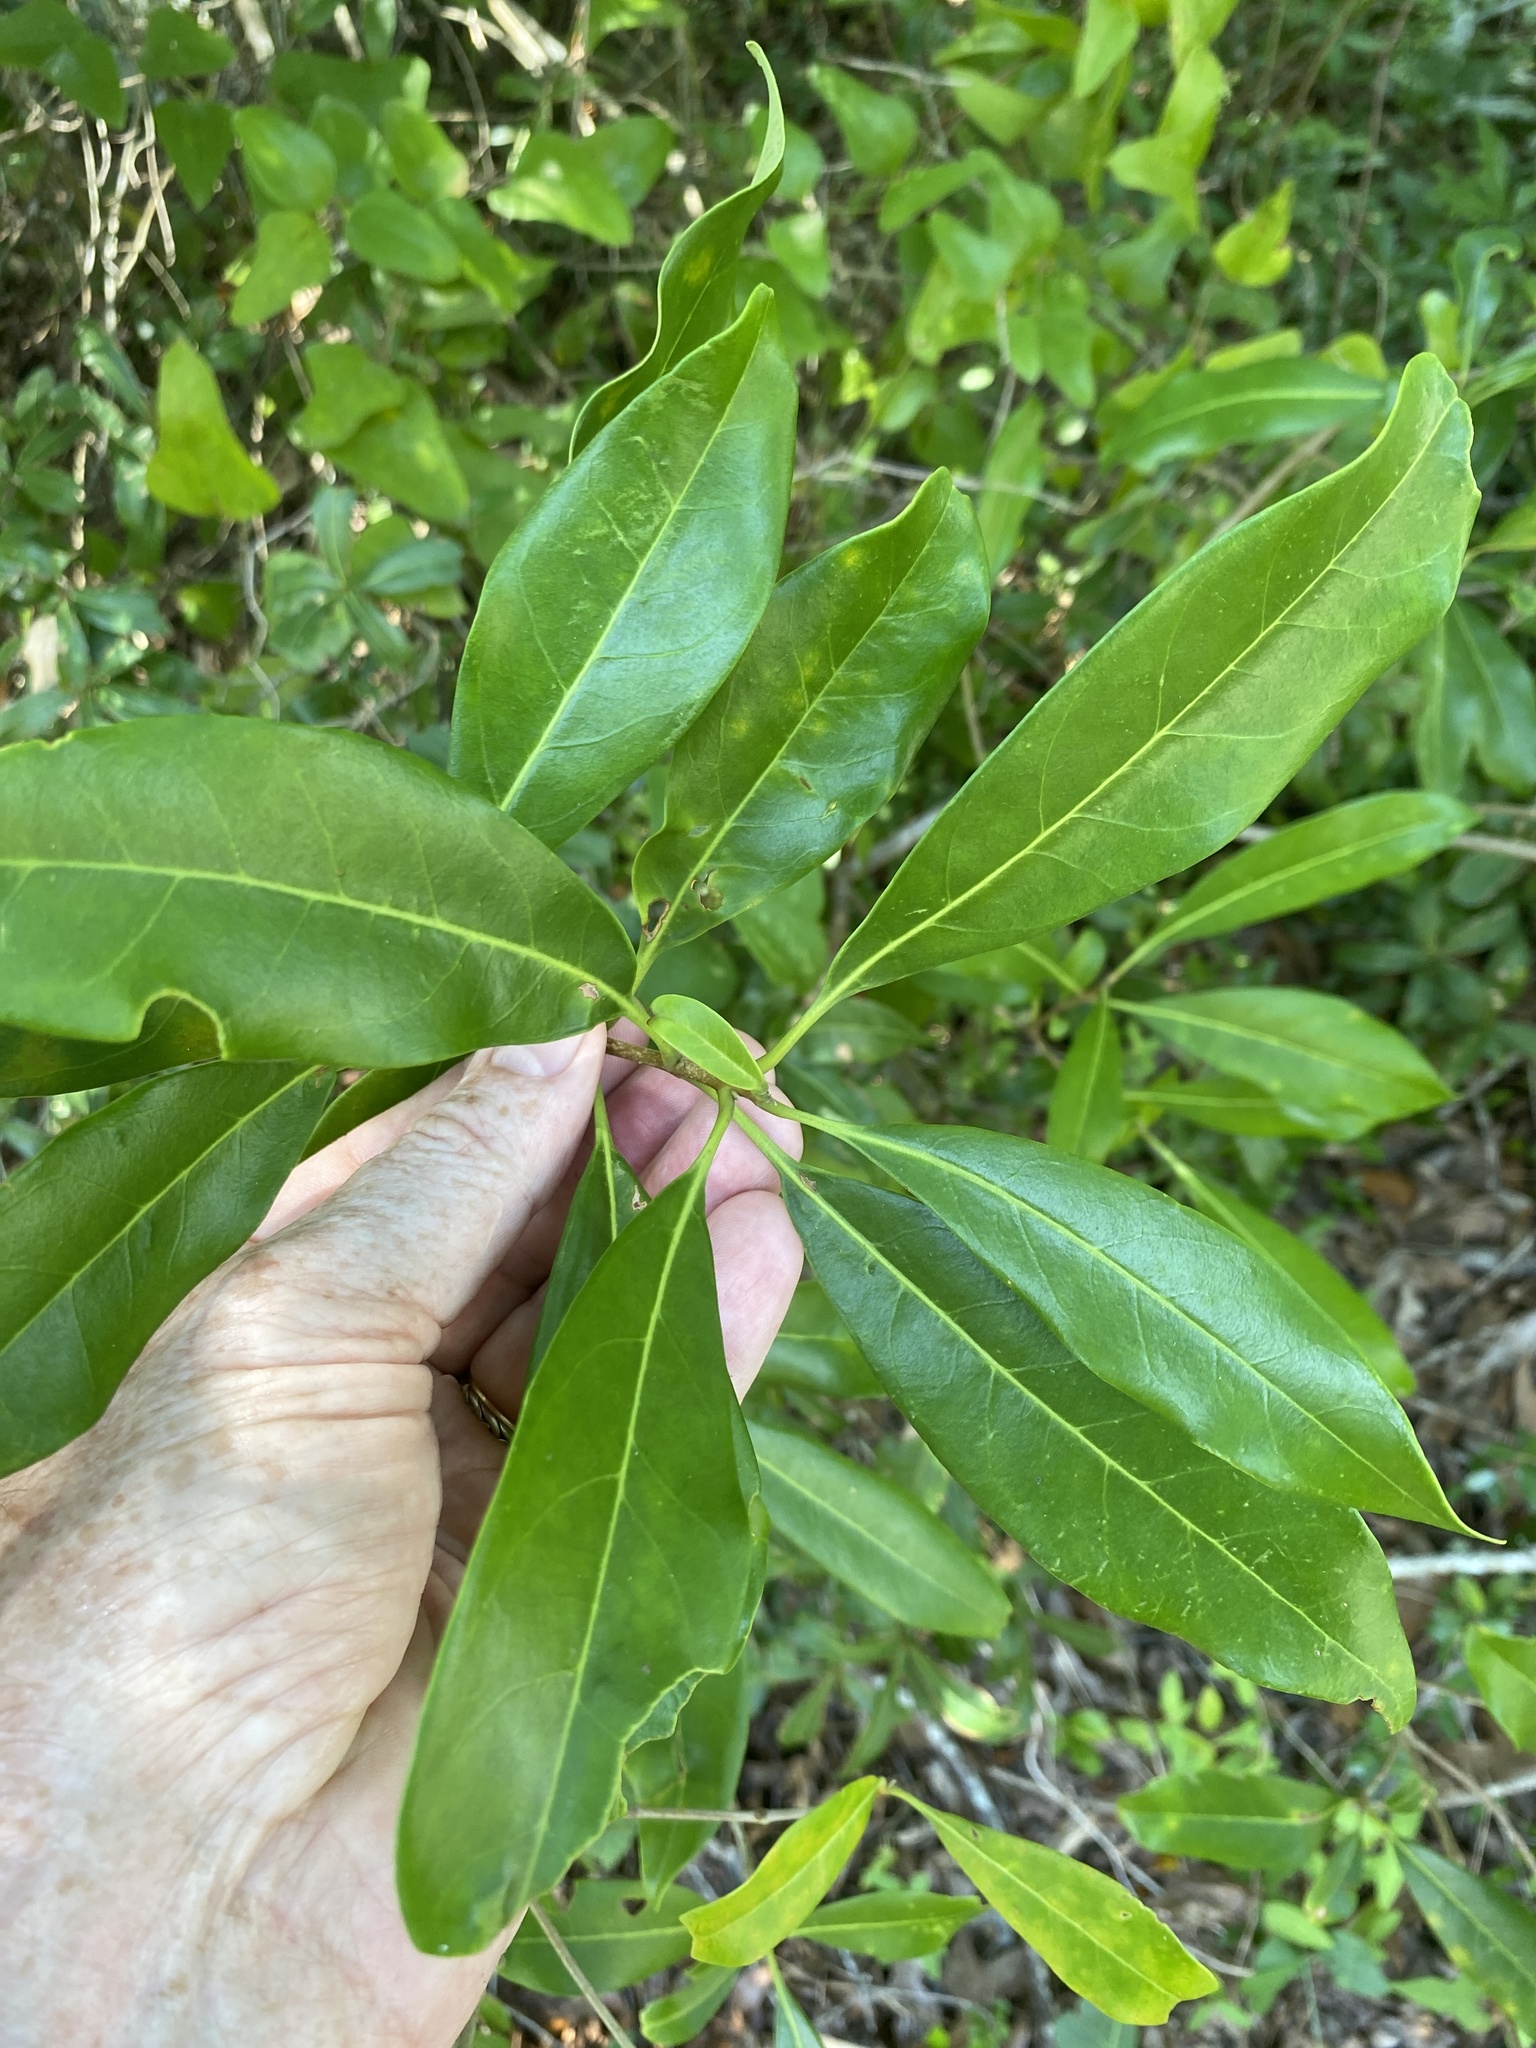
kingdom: Plantae
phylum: Tracheophyta
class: Magnoliopsida
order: Lamiales
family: Oleaceae
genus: Cartrema
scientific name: Cartrema americana
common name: Devilwood
